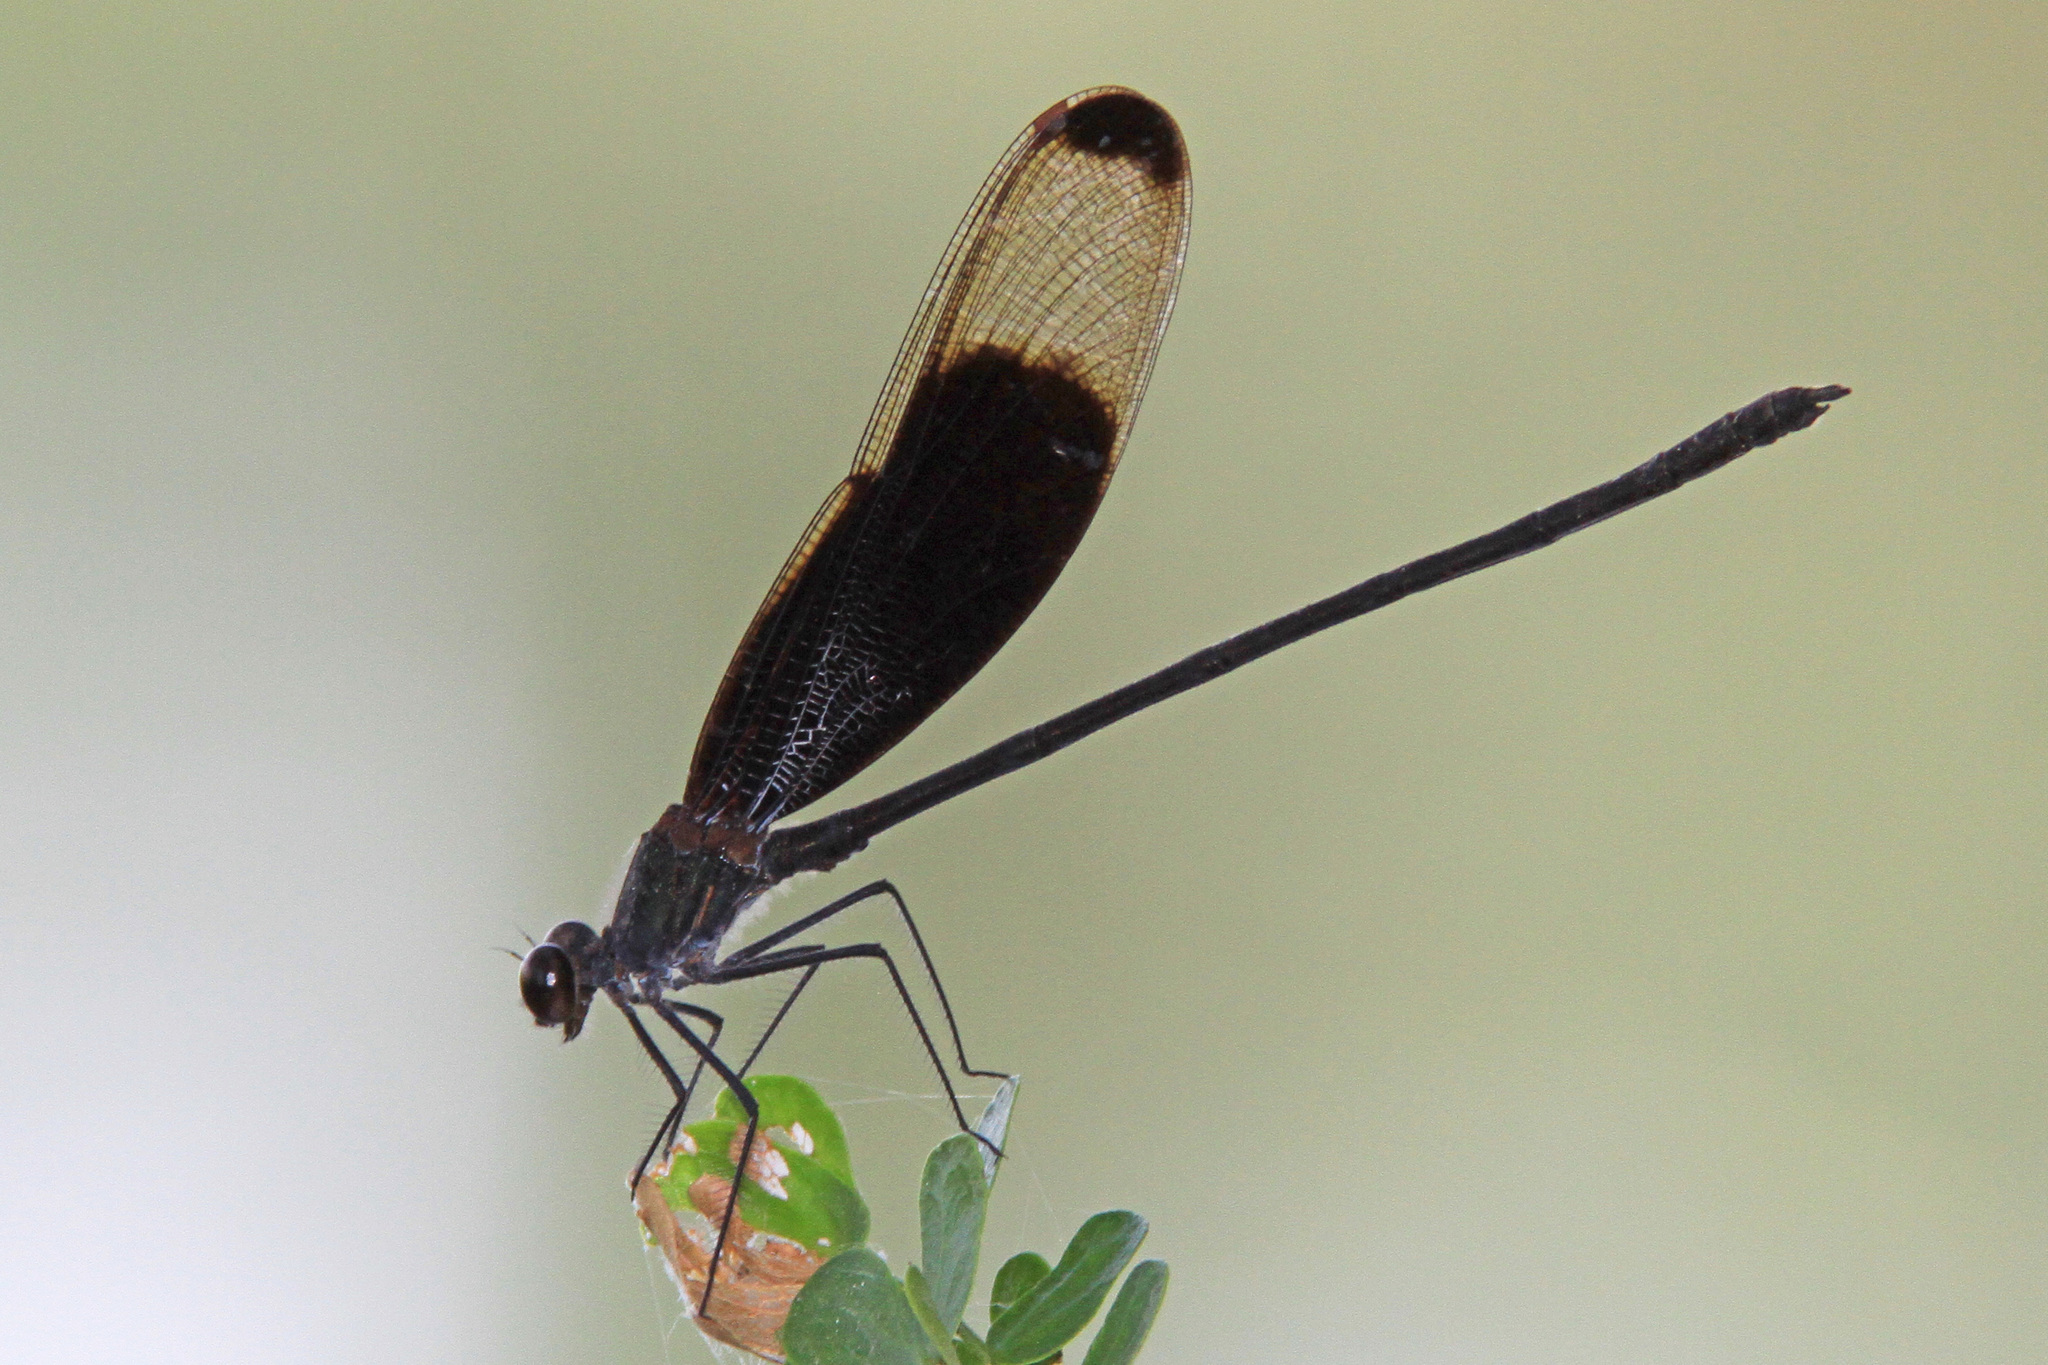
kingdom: Animalia
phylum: Arthropoda
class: Insecta
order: Odonata
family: Calopterygidae
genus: Hetaerina
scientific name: Hetaerina titia
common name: Smoky rubyspot
